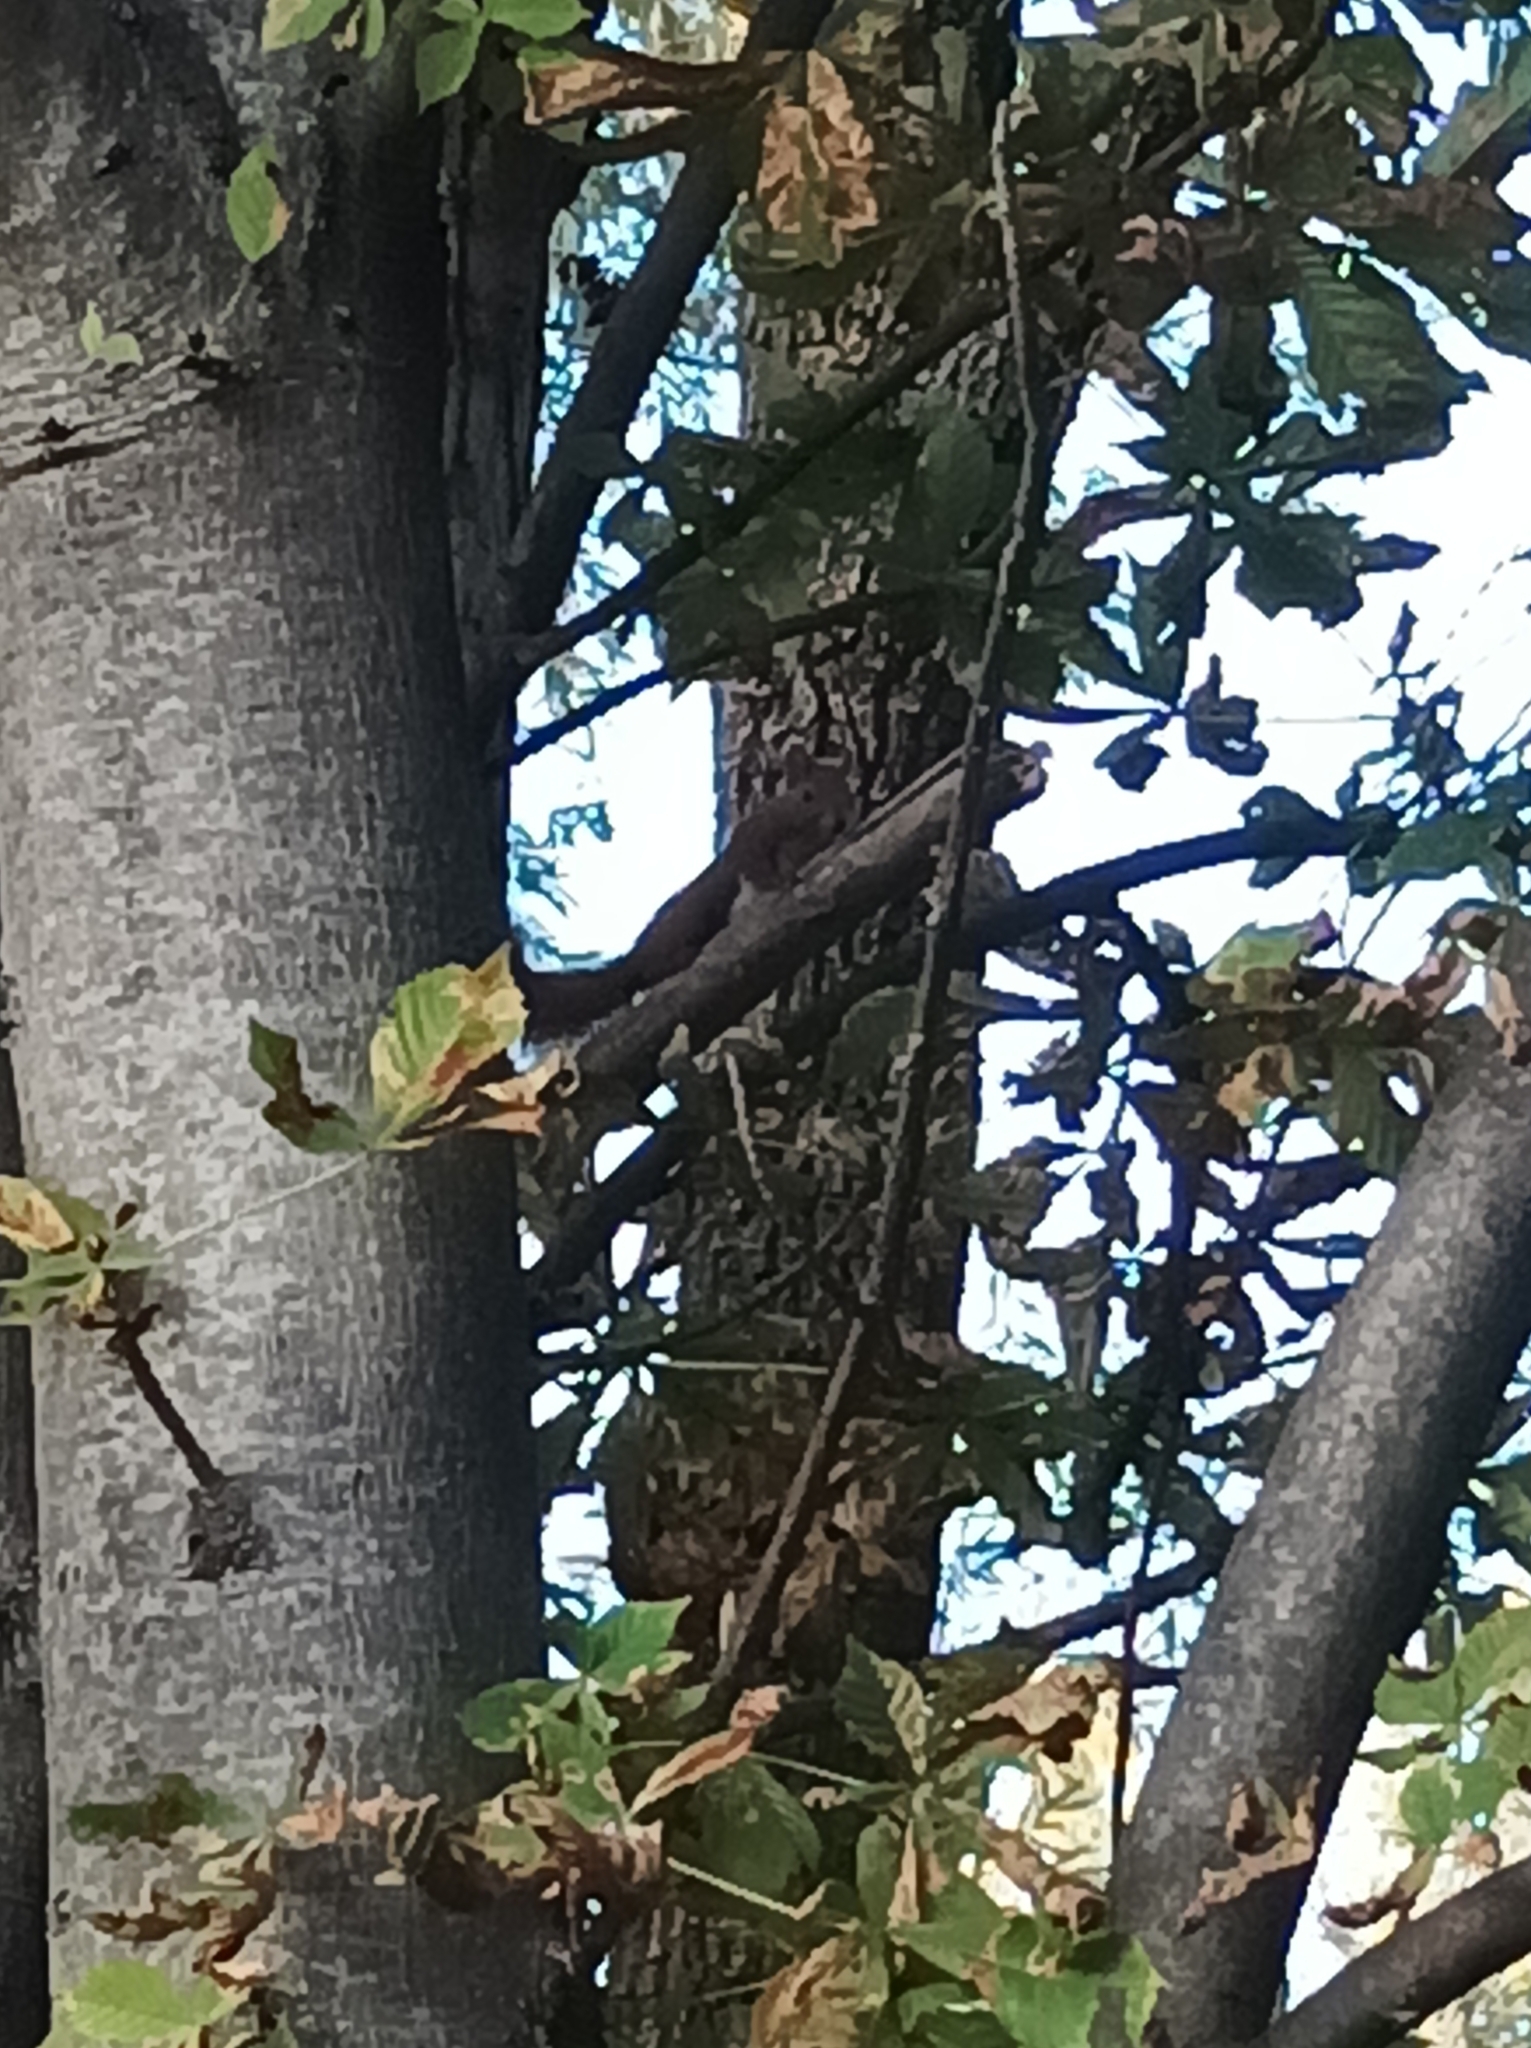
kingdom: Animalia
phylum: Chordata
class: Mammalia
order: Rodentia
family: Sciuridae
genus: Sciurus
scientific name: Sciurus vulgaris
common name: Eurasian red squirrel
